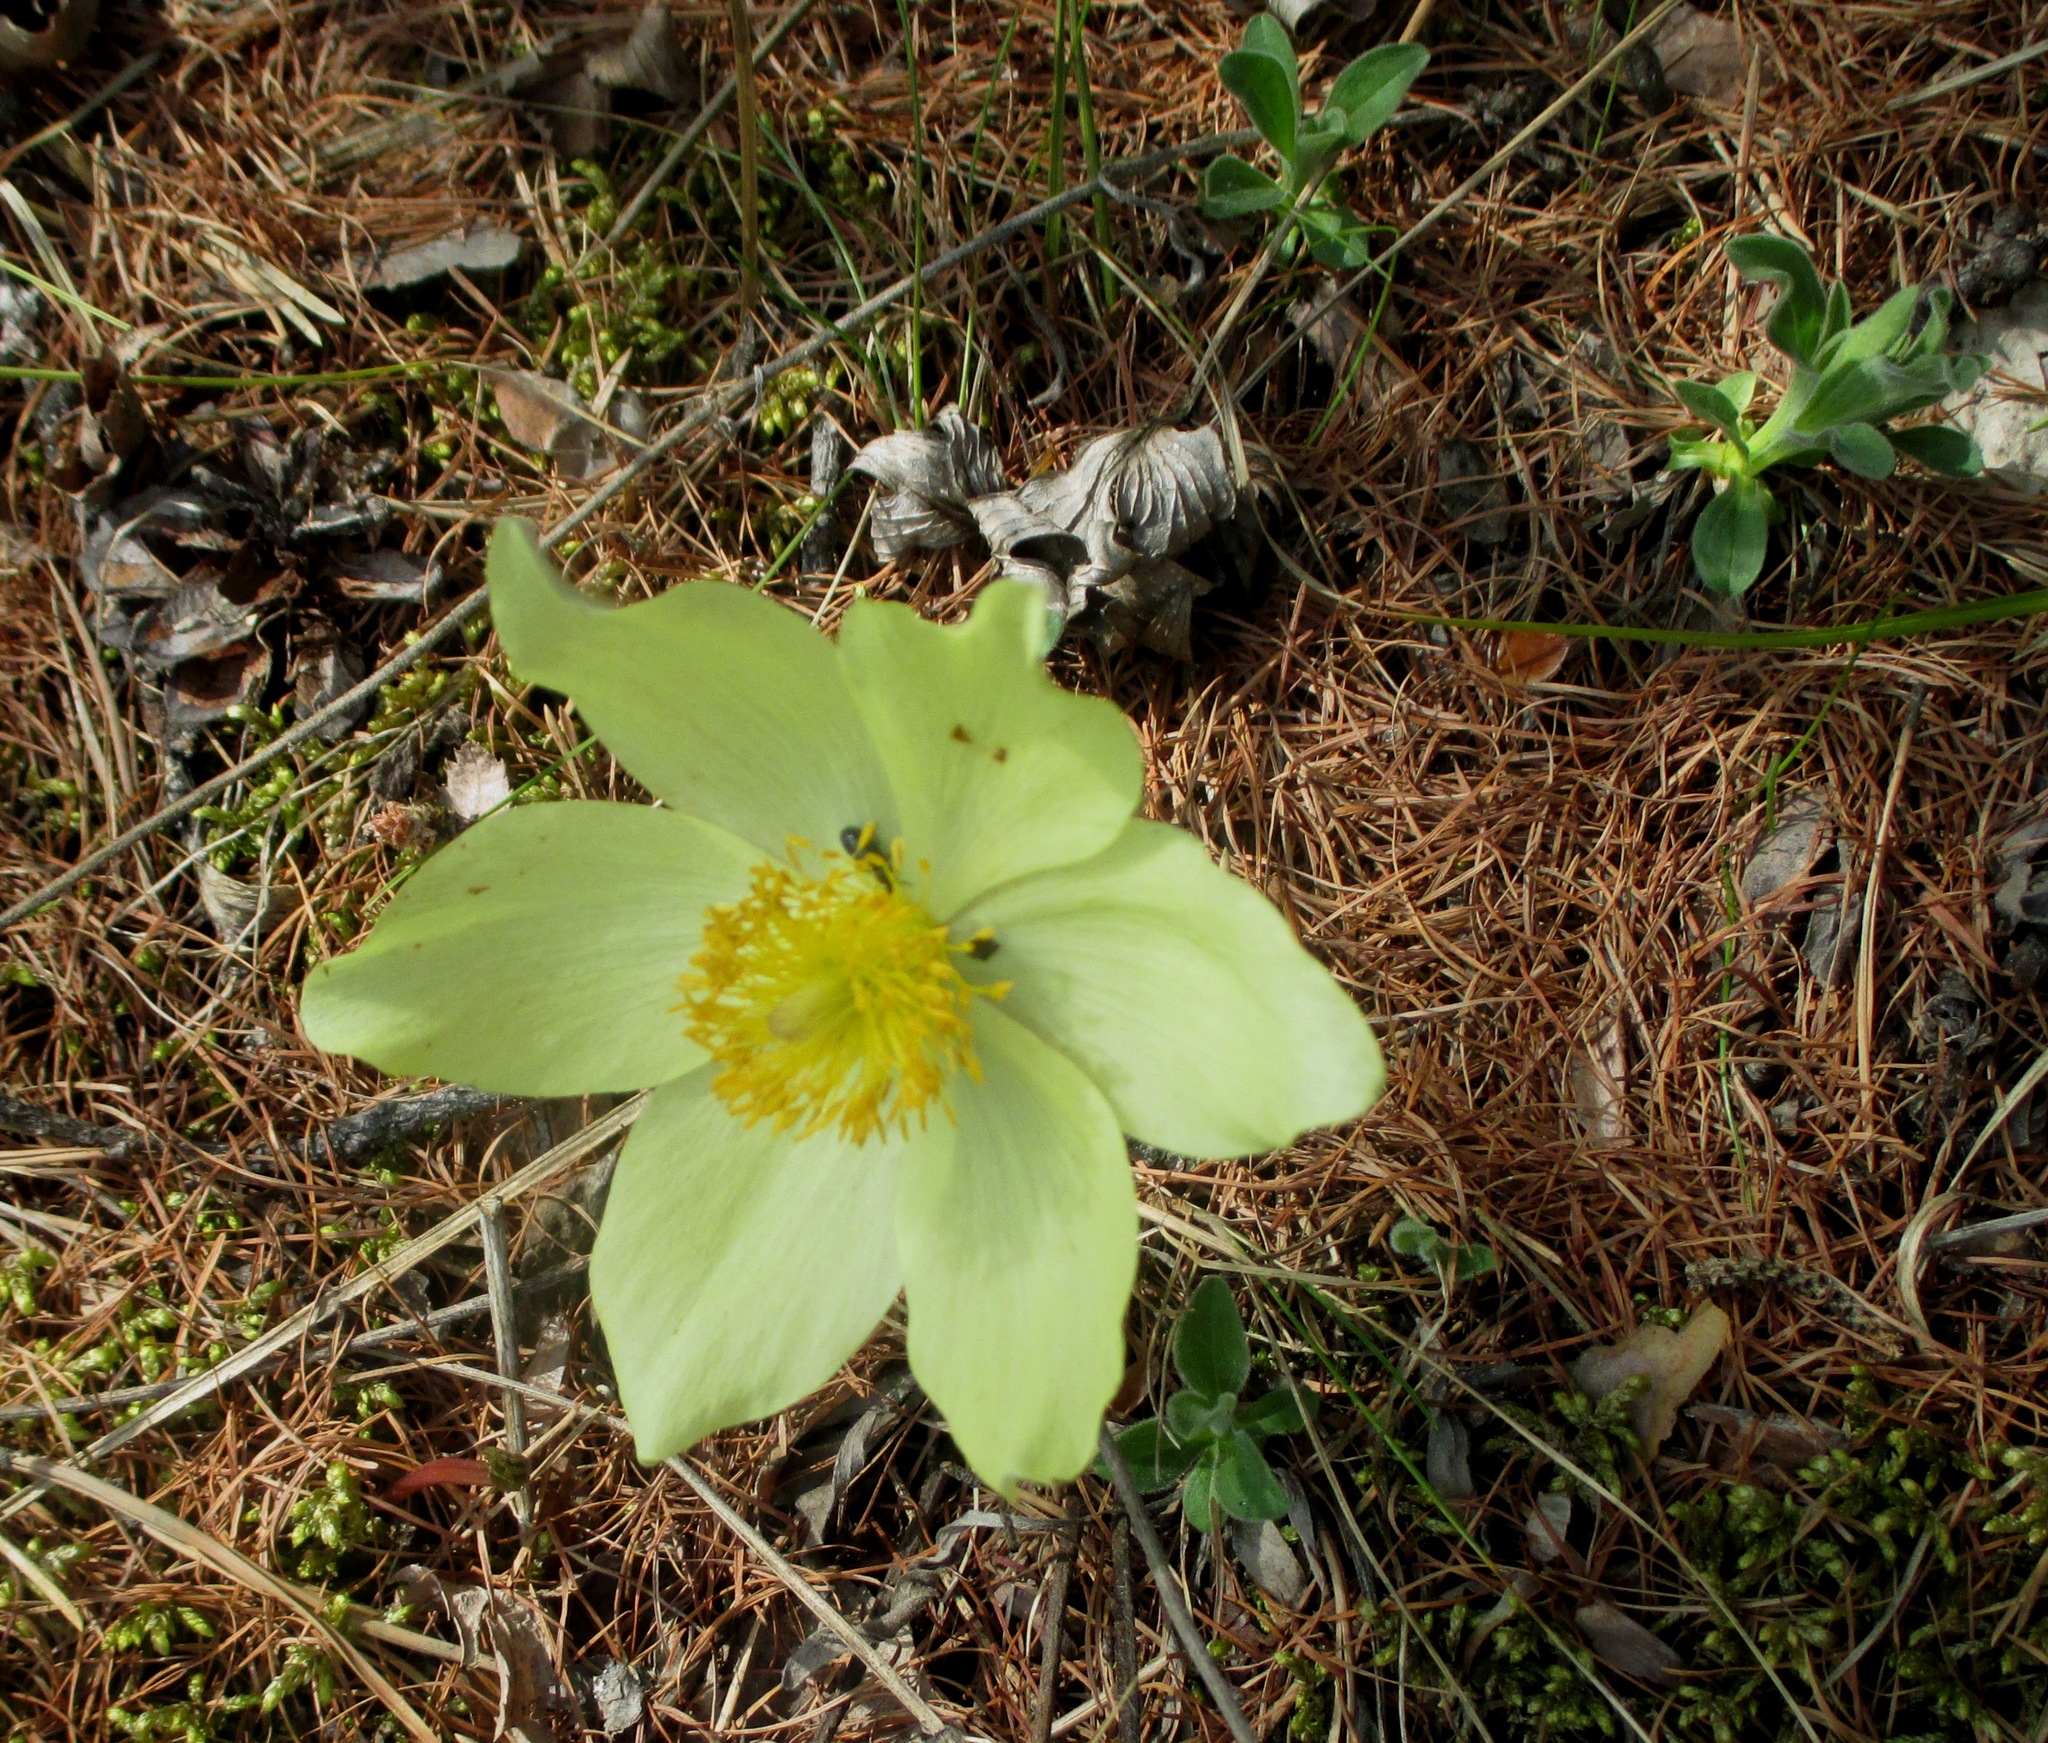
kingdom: Plantae
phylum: Tracheophyta
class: Magnoliopsida
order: Ranunculales
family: Ranunculaceae
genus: Pulsatilla
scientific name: Pulsatilla patens
